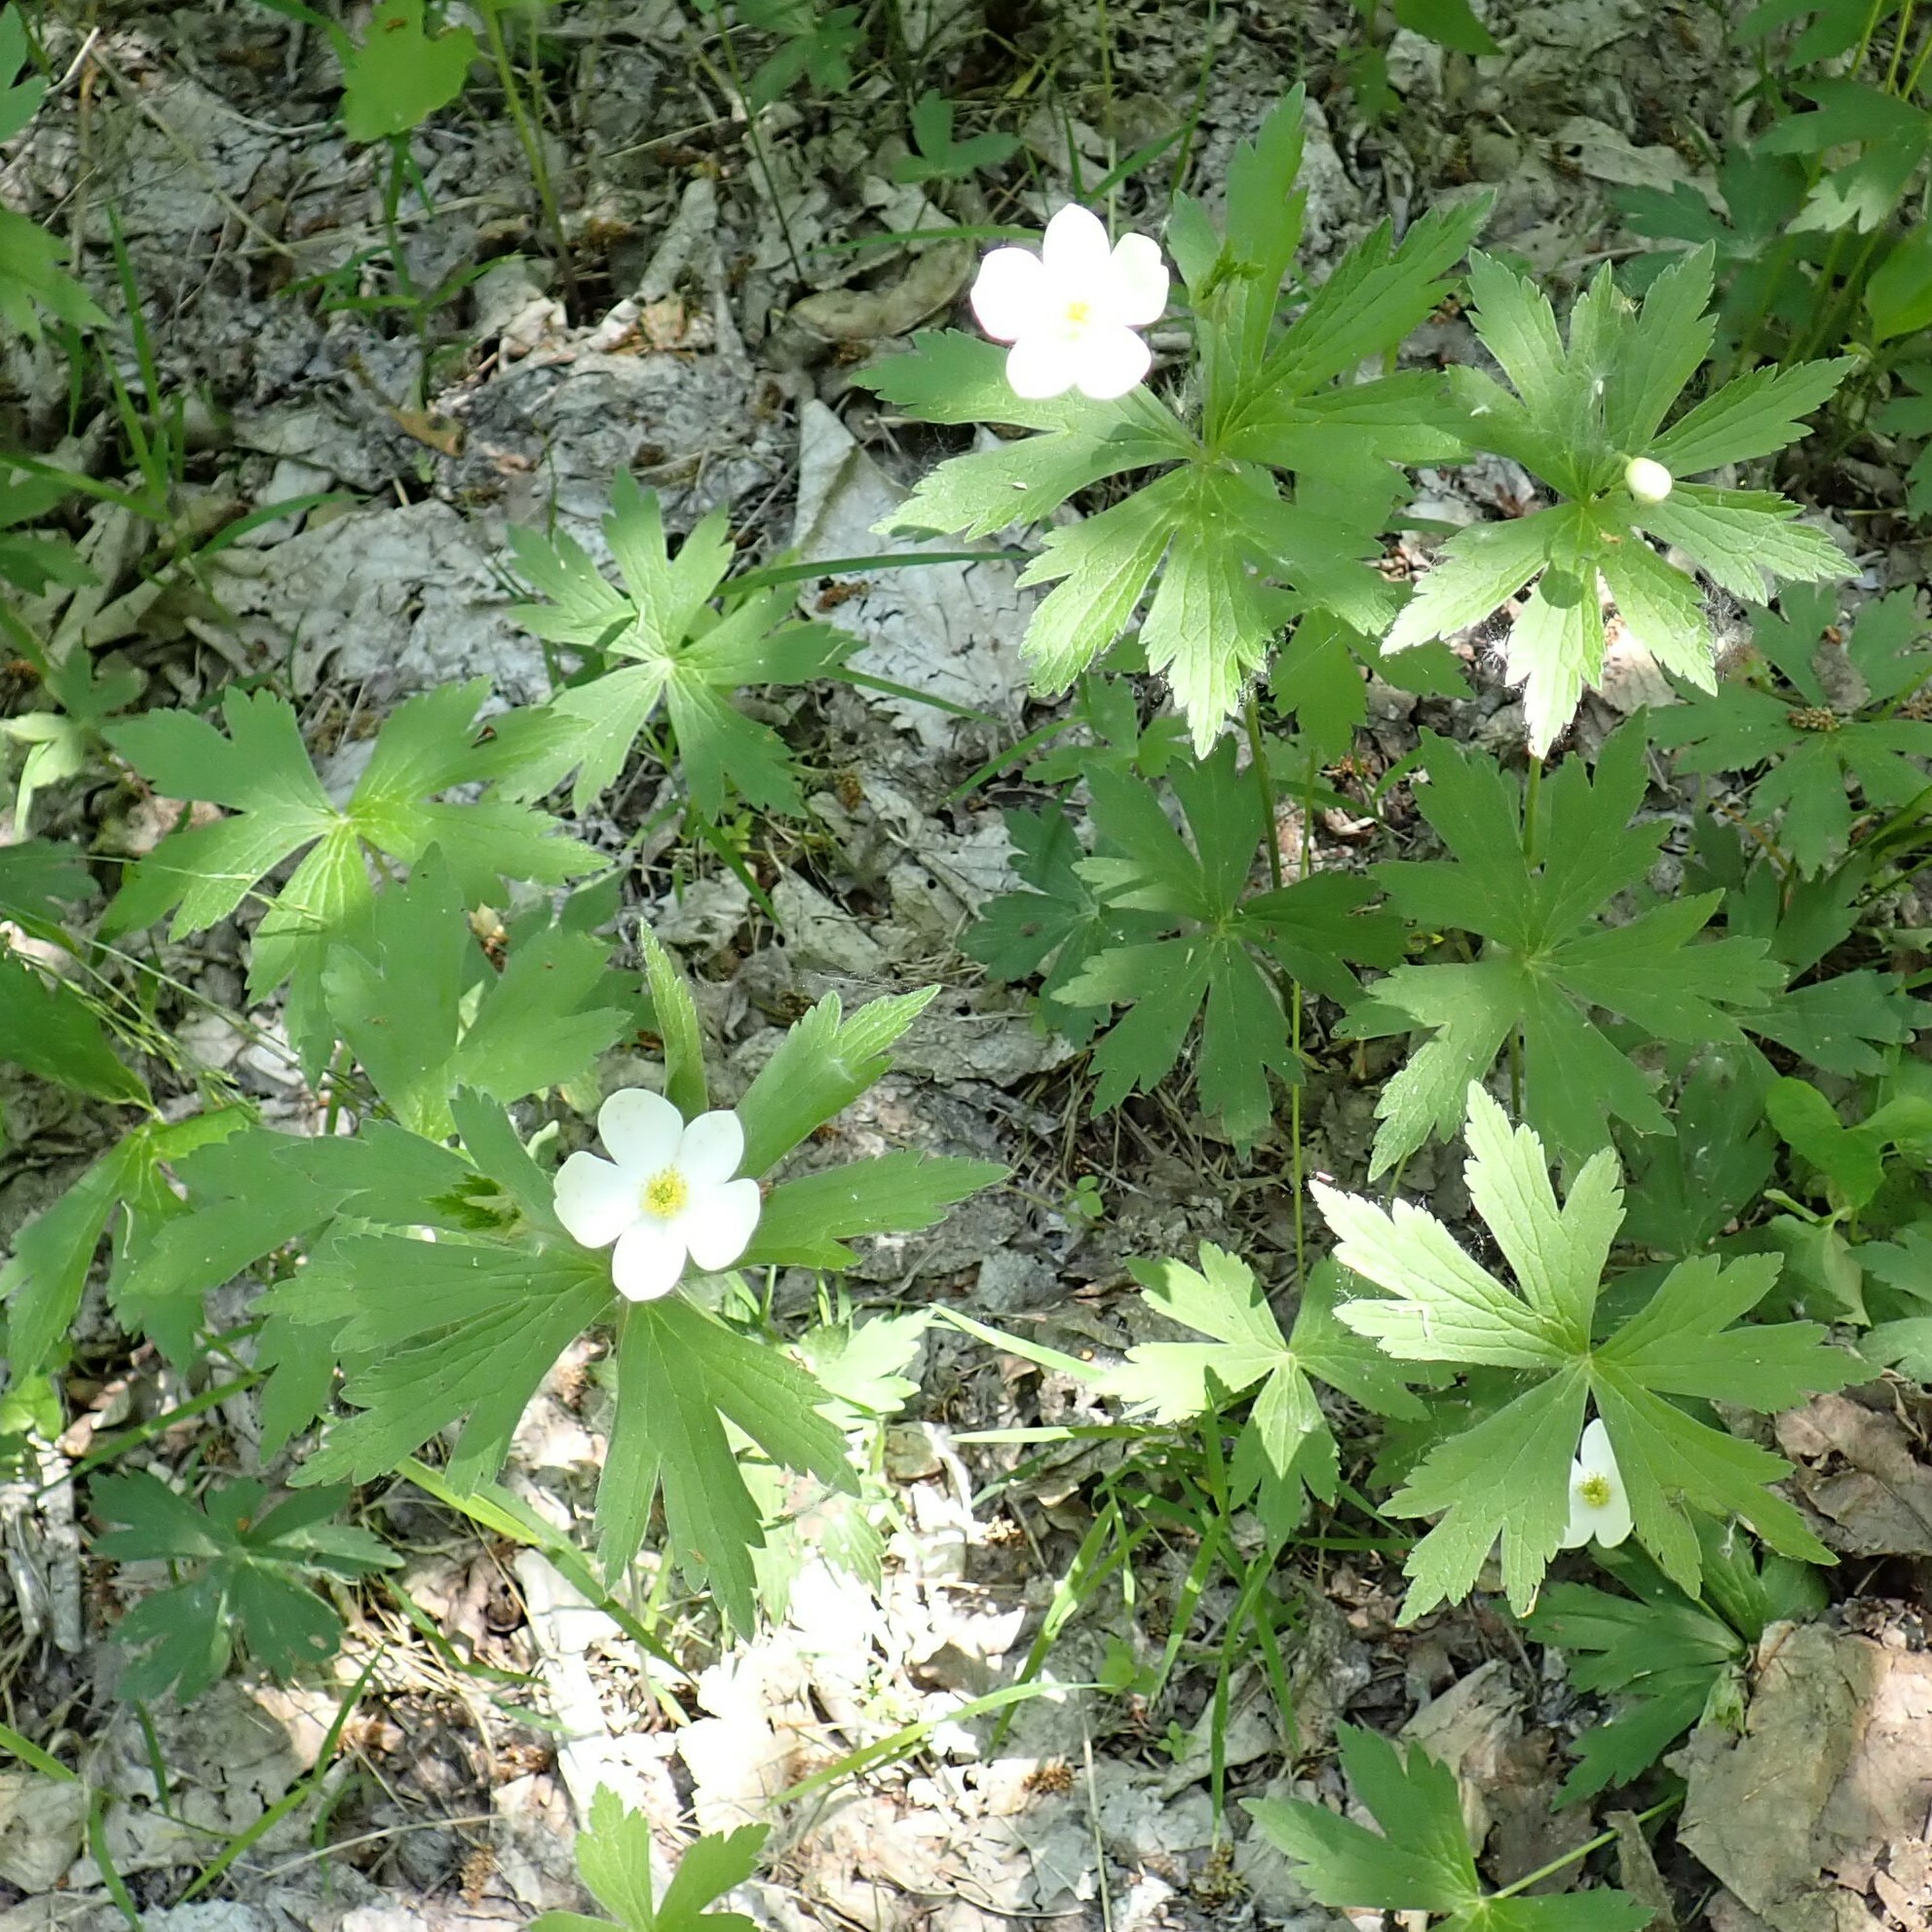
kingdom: Plantae
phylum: Tracheophyta
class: Magnoliopsida
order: Ranunculales
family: Ranunculaceae
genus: Anemonastrum
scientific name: Anemonastrum canadense
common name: Canada anemone
